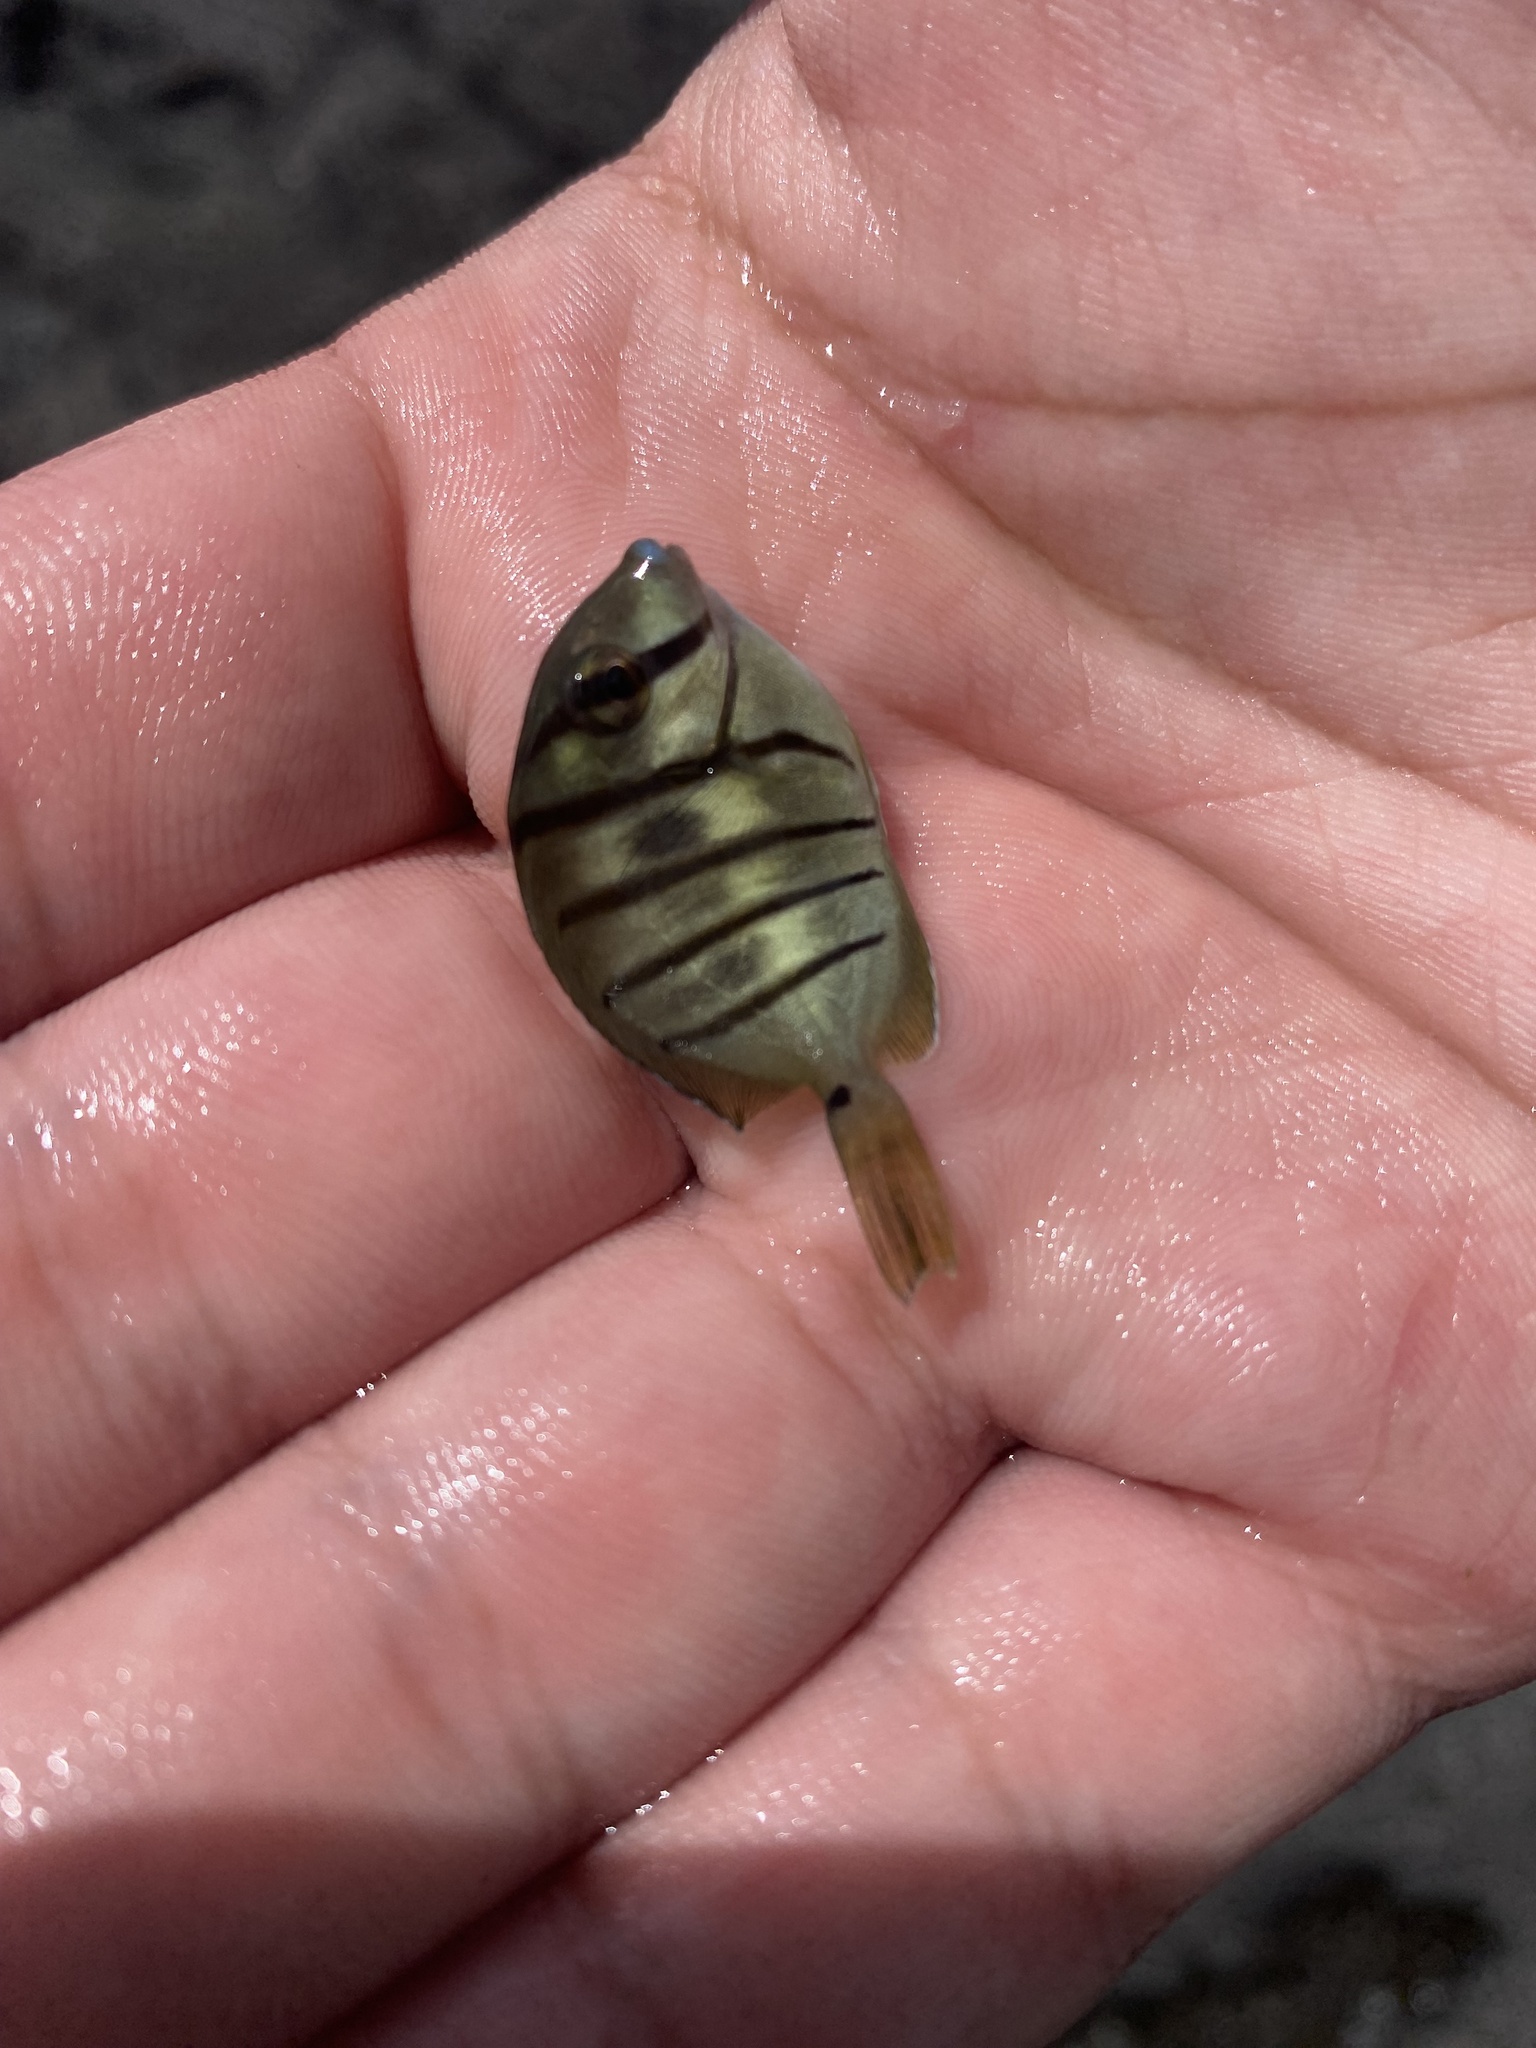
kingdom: Animalia
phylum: Chordata
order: Perciformes
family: Acanthuridae
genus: Acanthurus
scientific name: Acanthurus triostegus
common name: Convict surgeonfish
